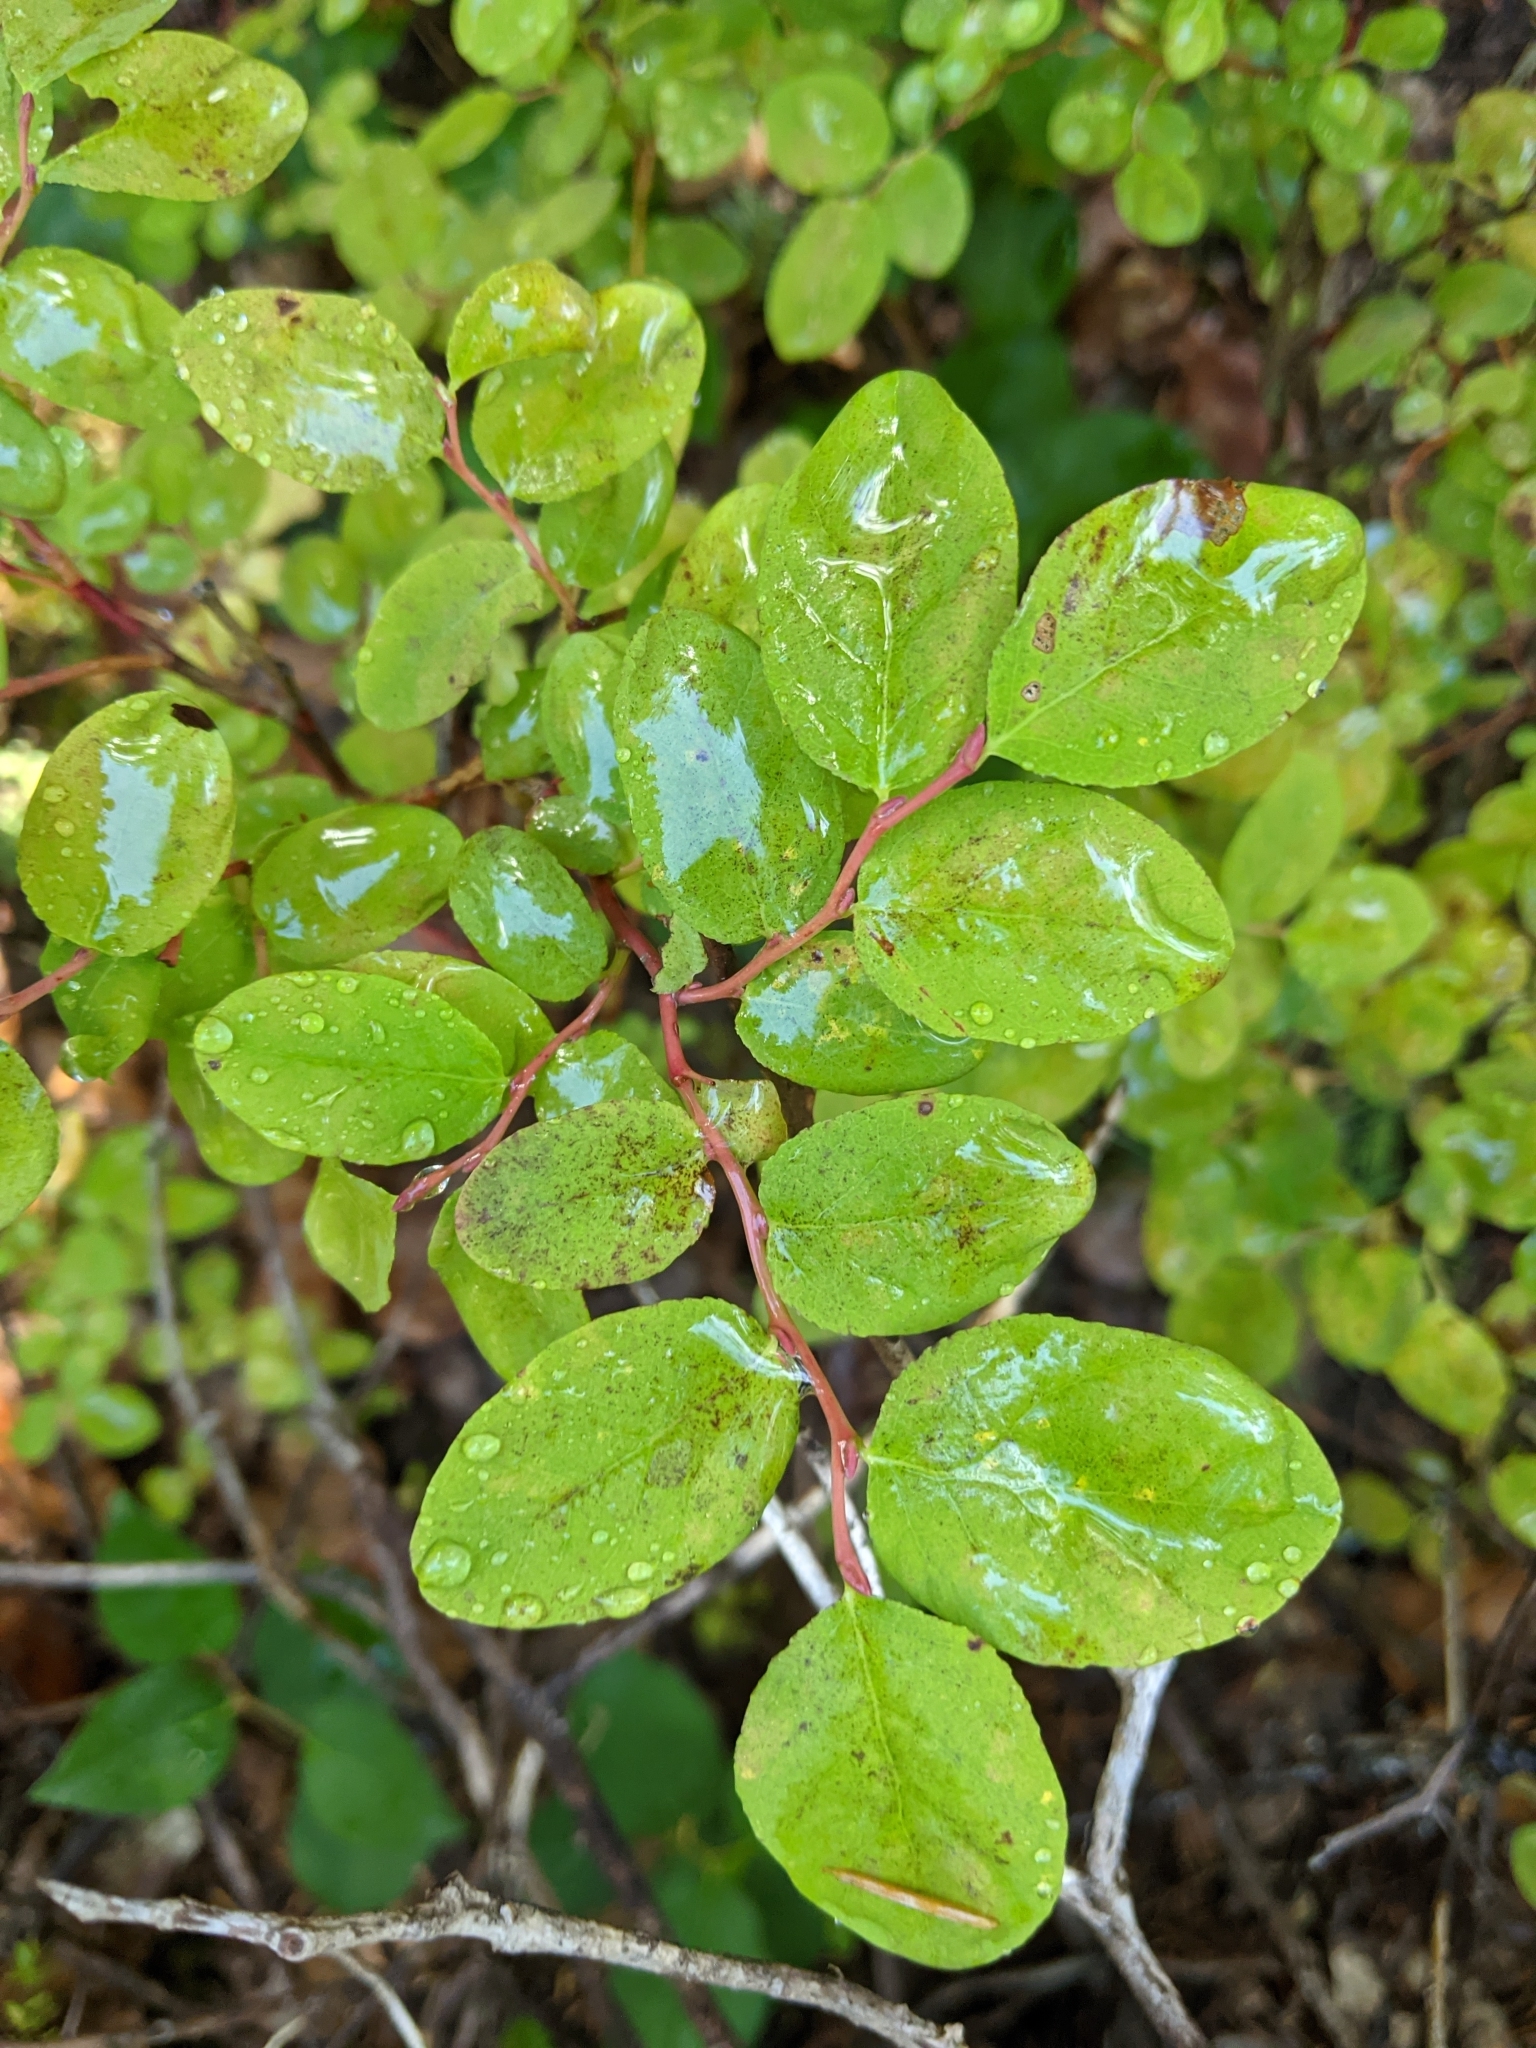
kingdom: Plantae
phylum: Tracheophyta
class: Magnoliopsida
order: Ericales
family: Ericaceae
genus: Vaccinium
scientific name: Vaccinium ovalifolium
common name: Early blueberry
